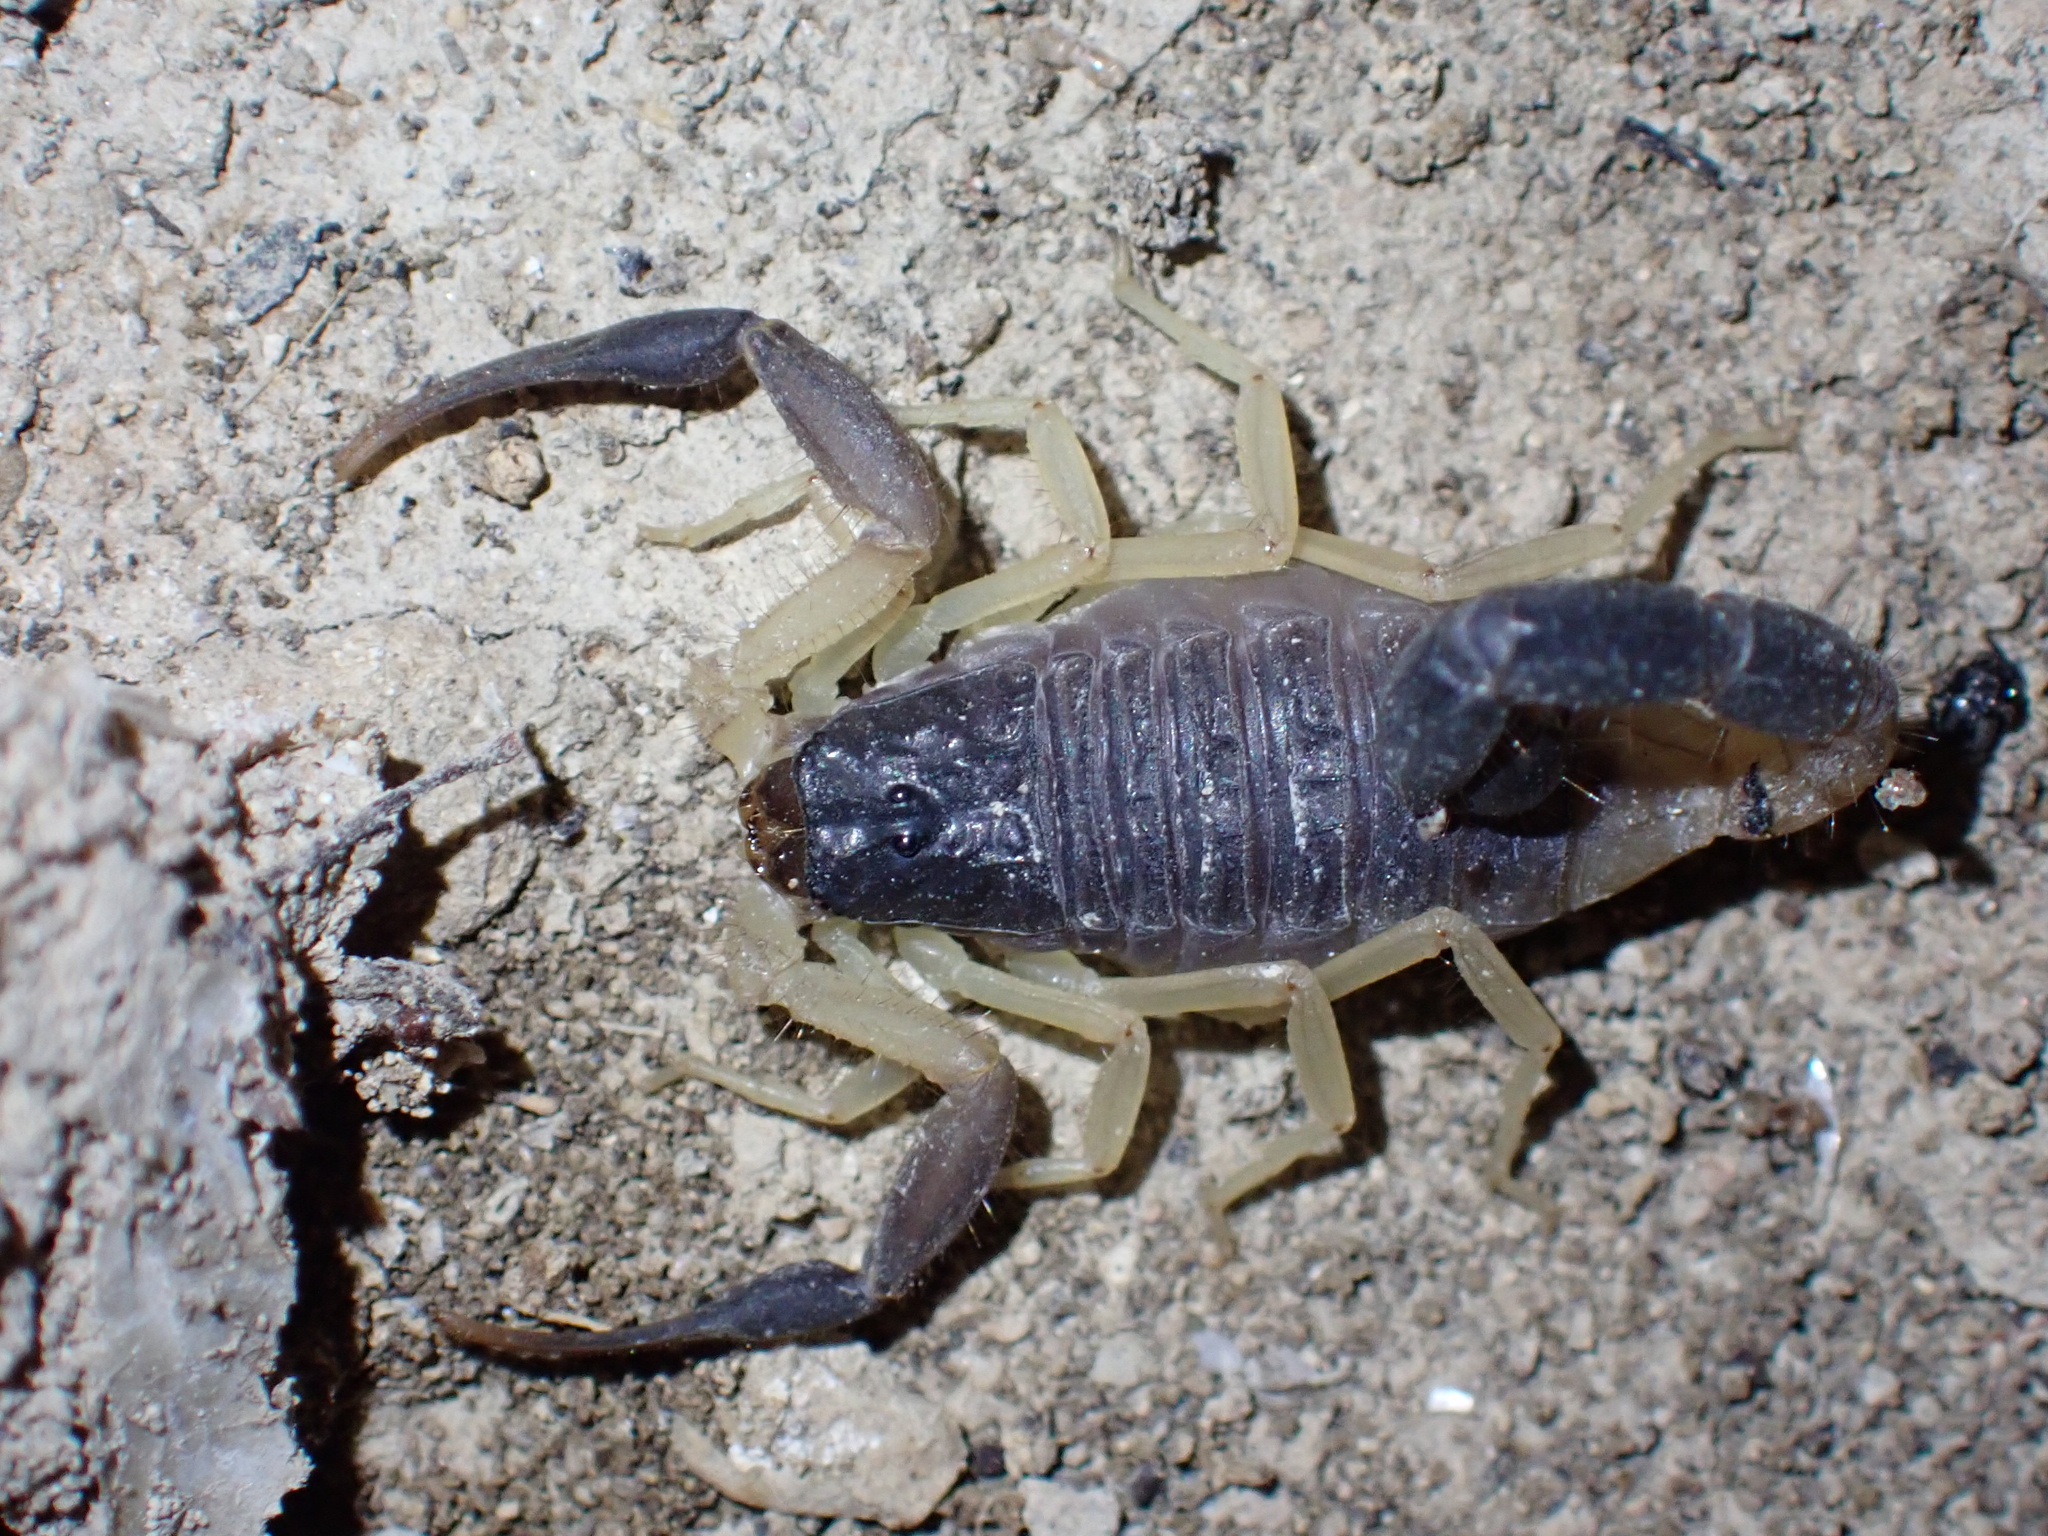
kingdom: Animalia
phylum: Arthropoda
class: Arachnida
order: Scorpiones
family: Buthidae
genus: Hottentotta
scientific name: Hottentotta jayakari
